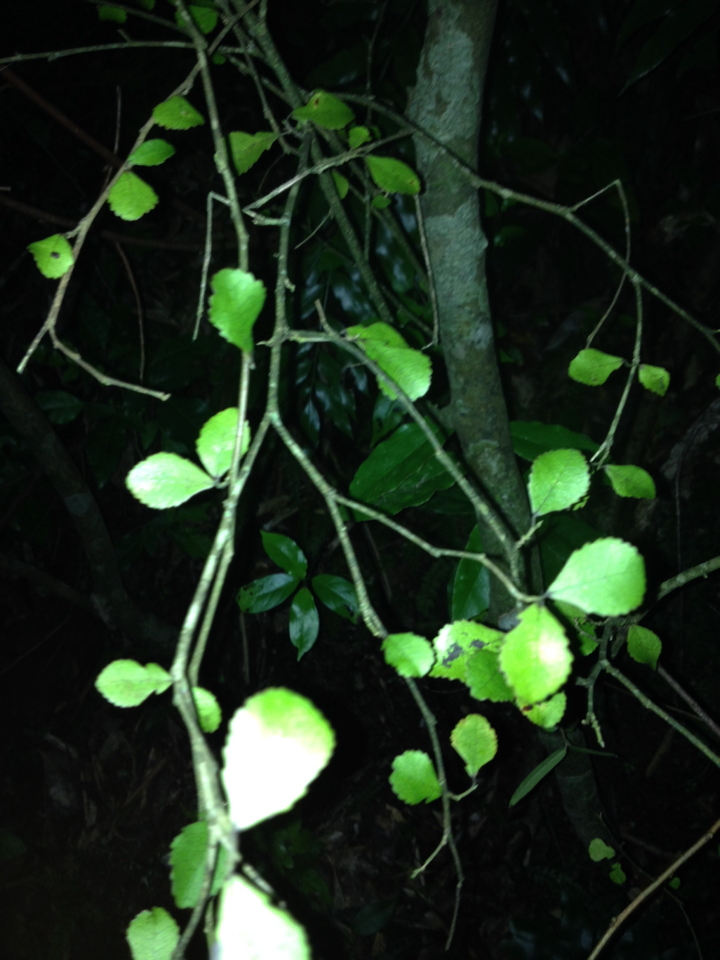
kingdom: Plantae
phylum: Tracheophyta
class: Magnoliopsida
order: Rosales
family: Moraceae
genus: Paratrophis
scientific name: Paratrophis banksii
